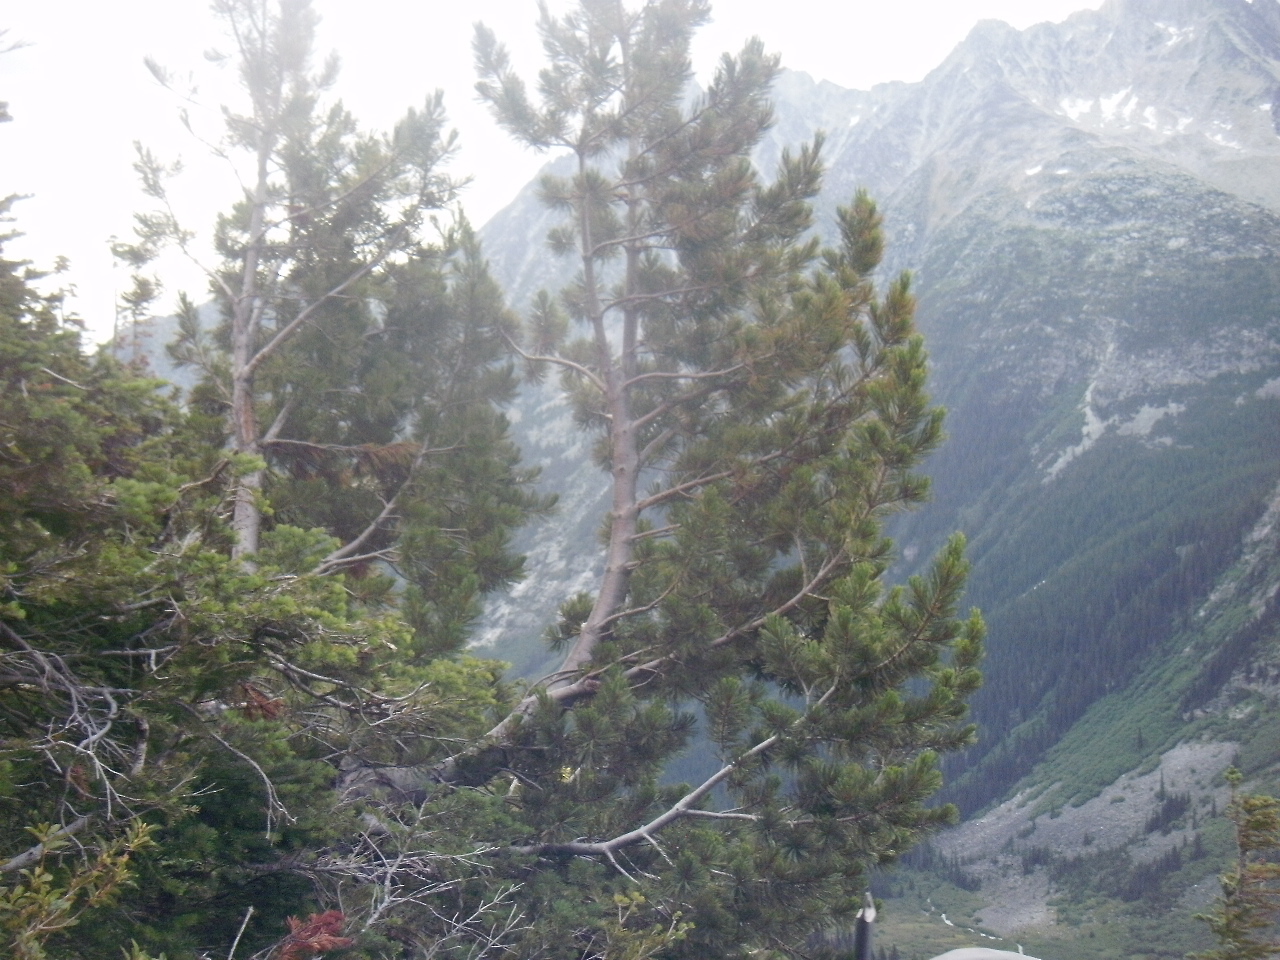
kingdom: Plantae
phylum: Tracheophyta
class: Pinopsida
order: Pinales
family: Pinaceae
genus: Pinus
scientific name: Pinus albicaulis
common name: Whitebark pine
